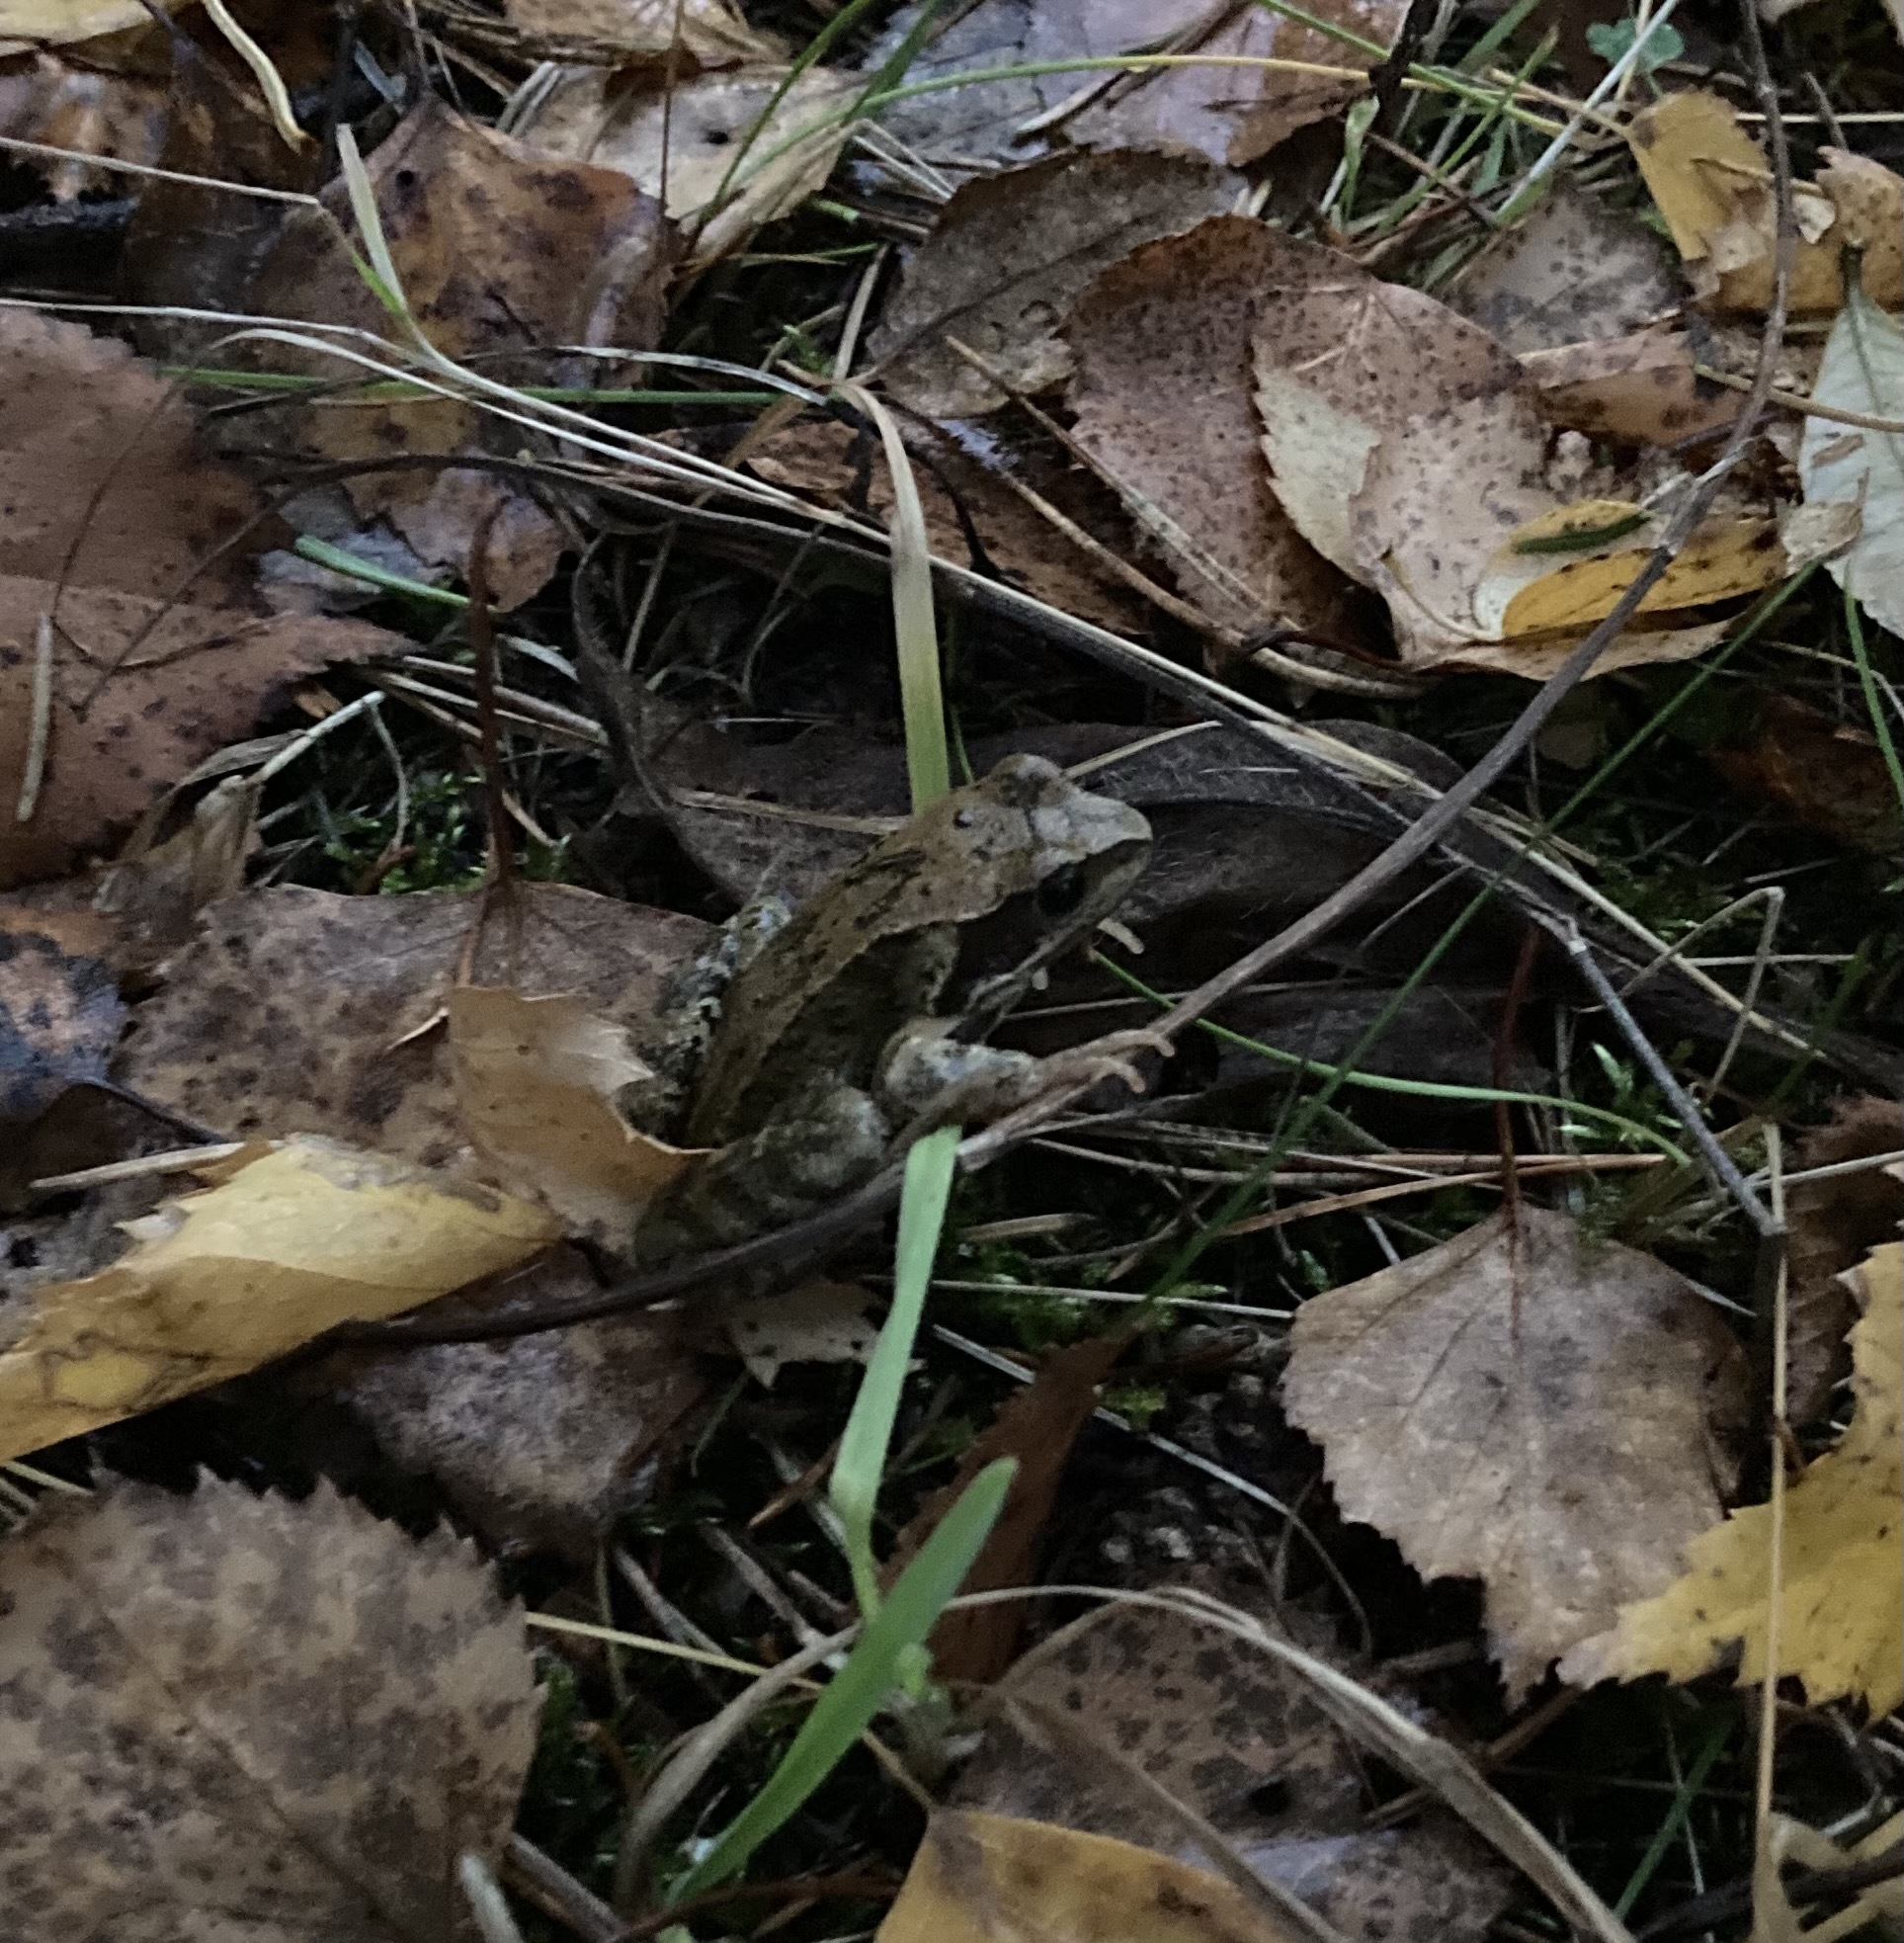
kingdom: Animalia
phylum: Chordata
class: Amphibia
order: Anura
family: Ranidae
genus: Rana
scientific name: Rana temporaria
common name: Common frog
